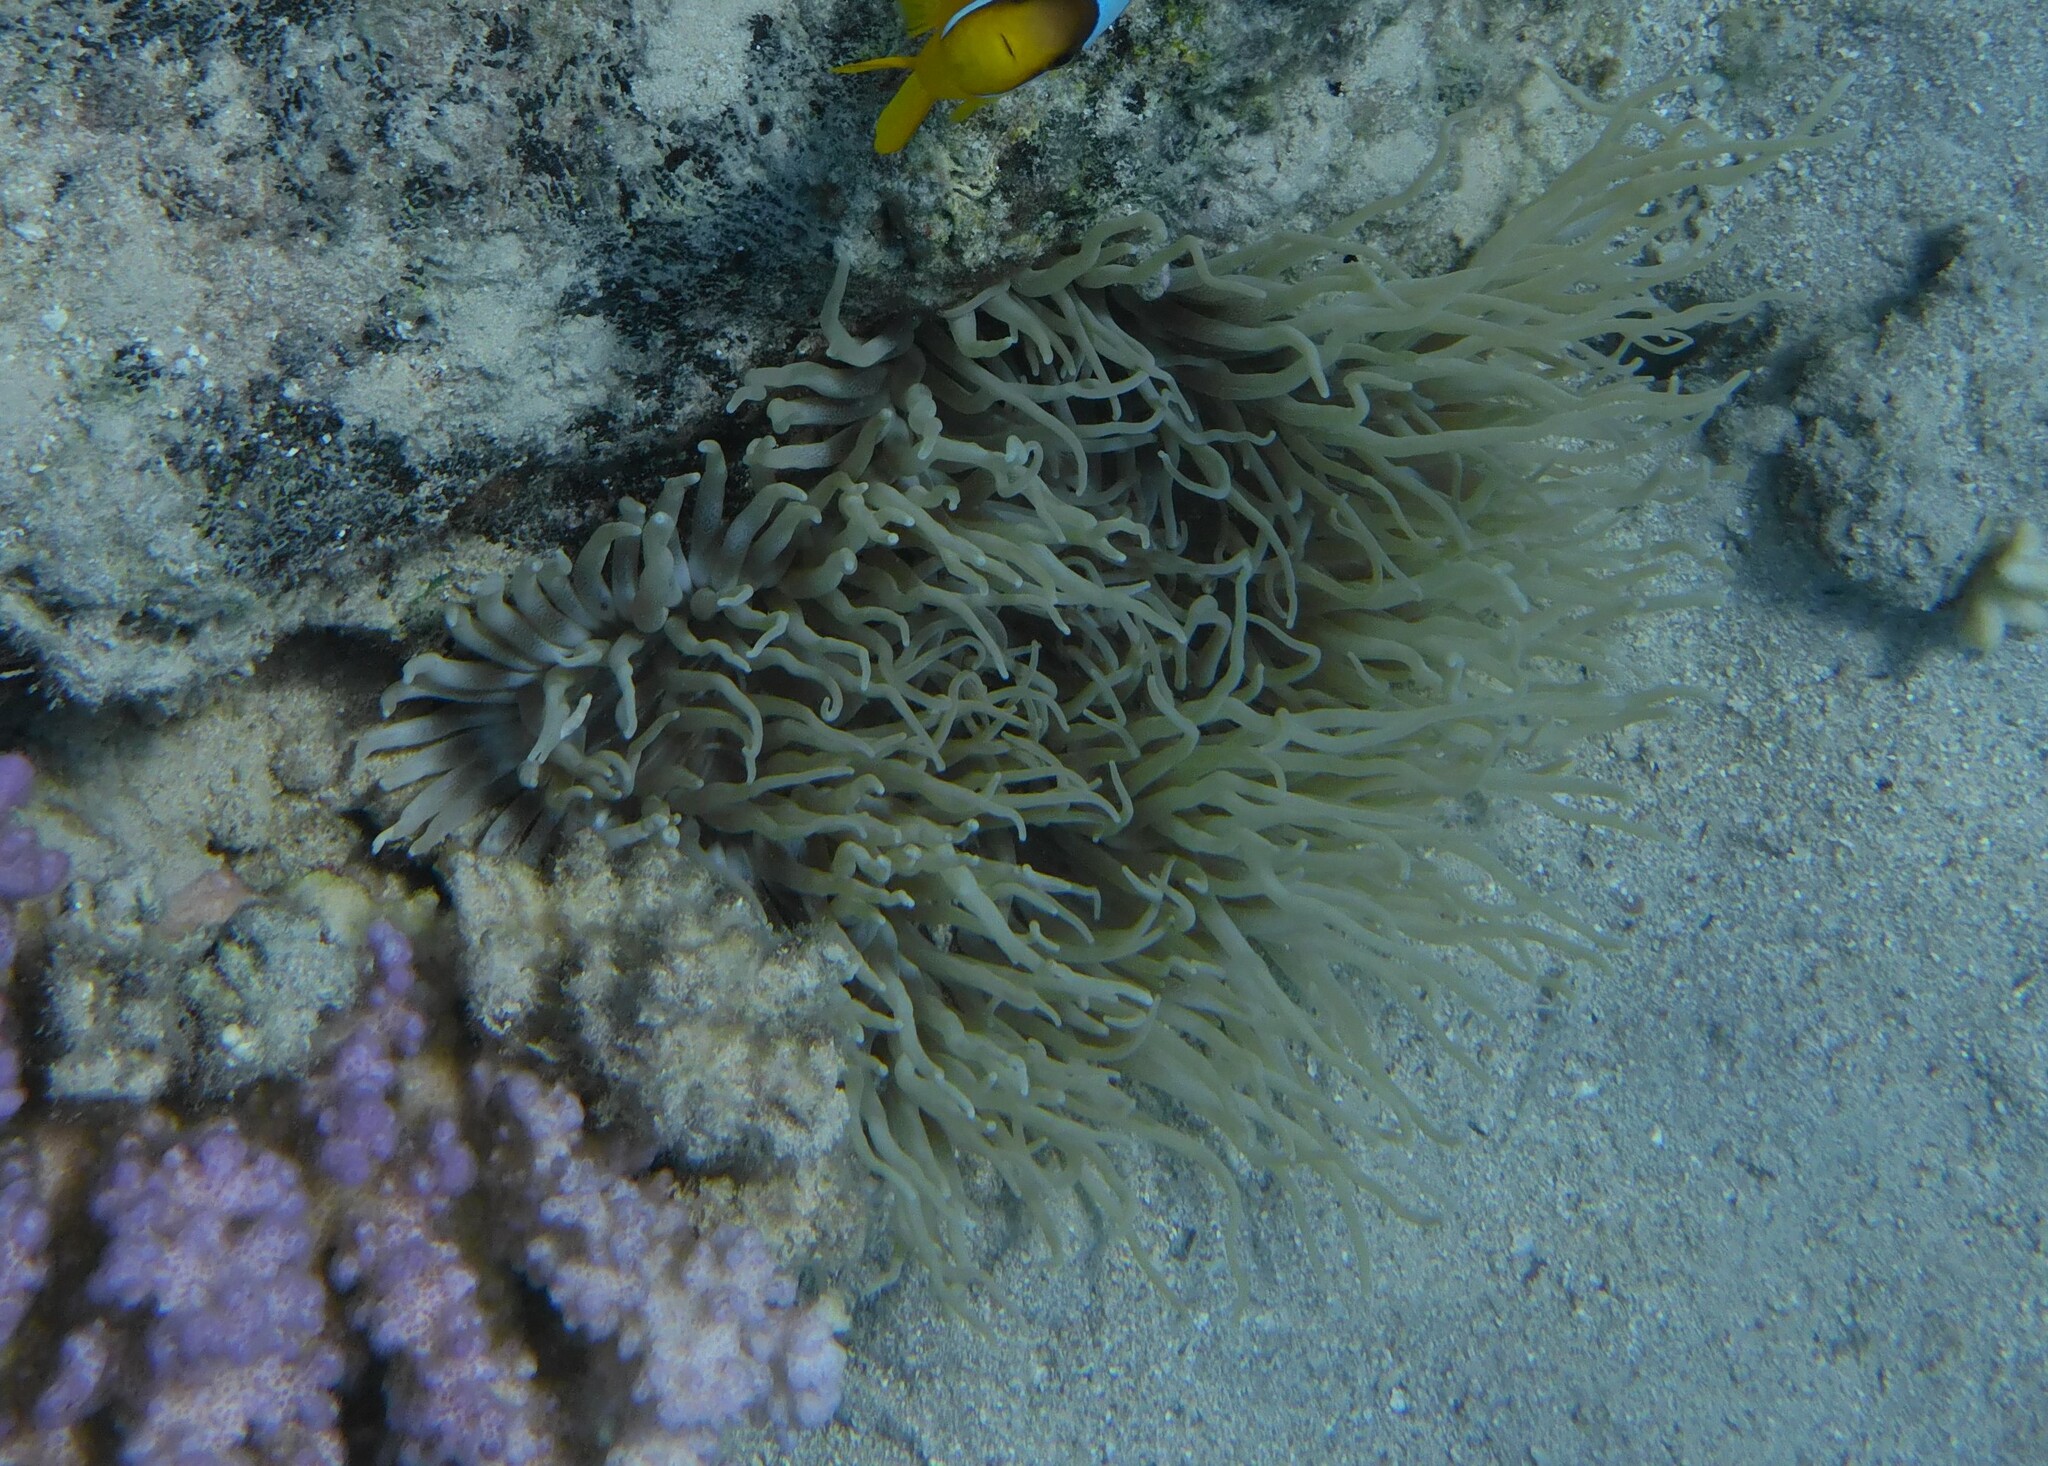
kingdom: Animalia
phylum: Cnidaria
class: Anthozoa
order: Actiniaria
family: Stichodactylidae
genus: Radianthus
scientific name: Radianthus crispa
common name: Leather anemone
